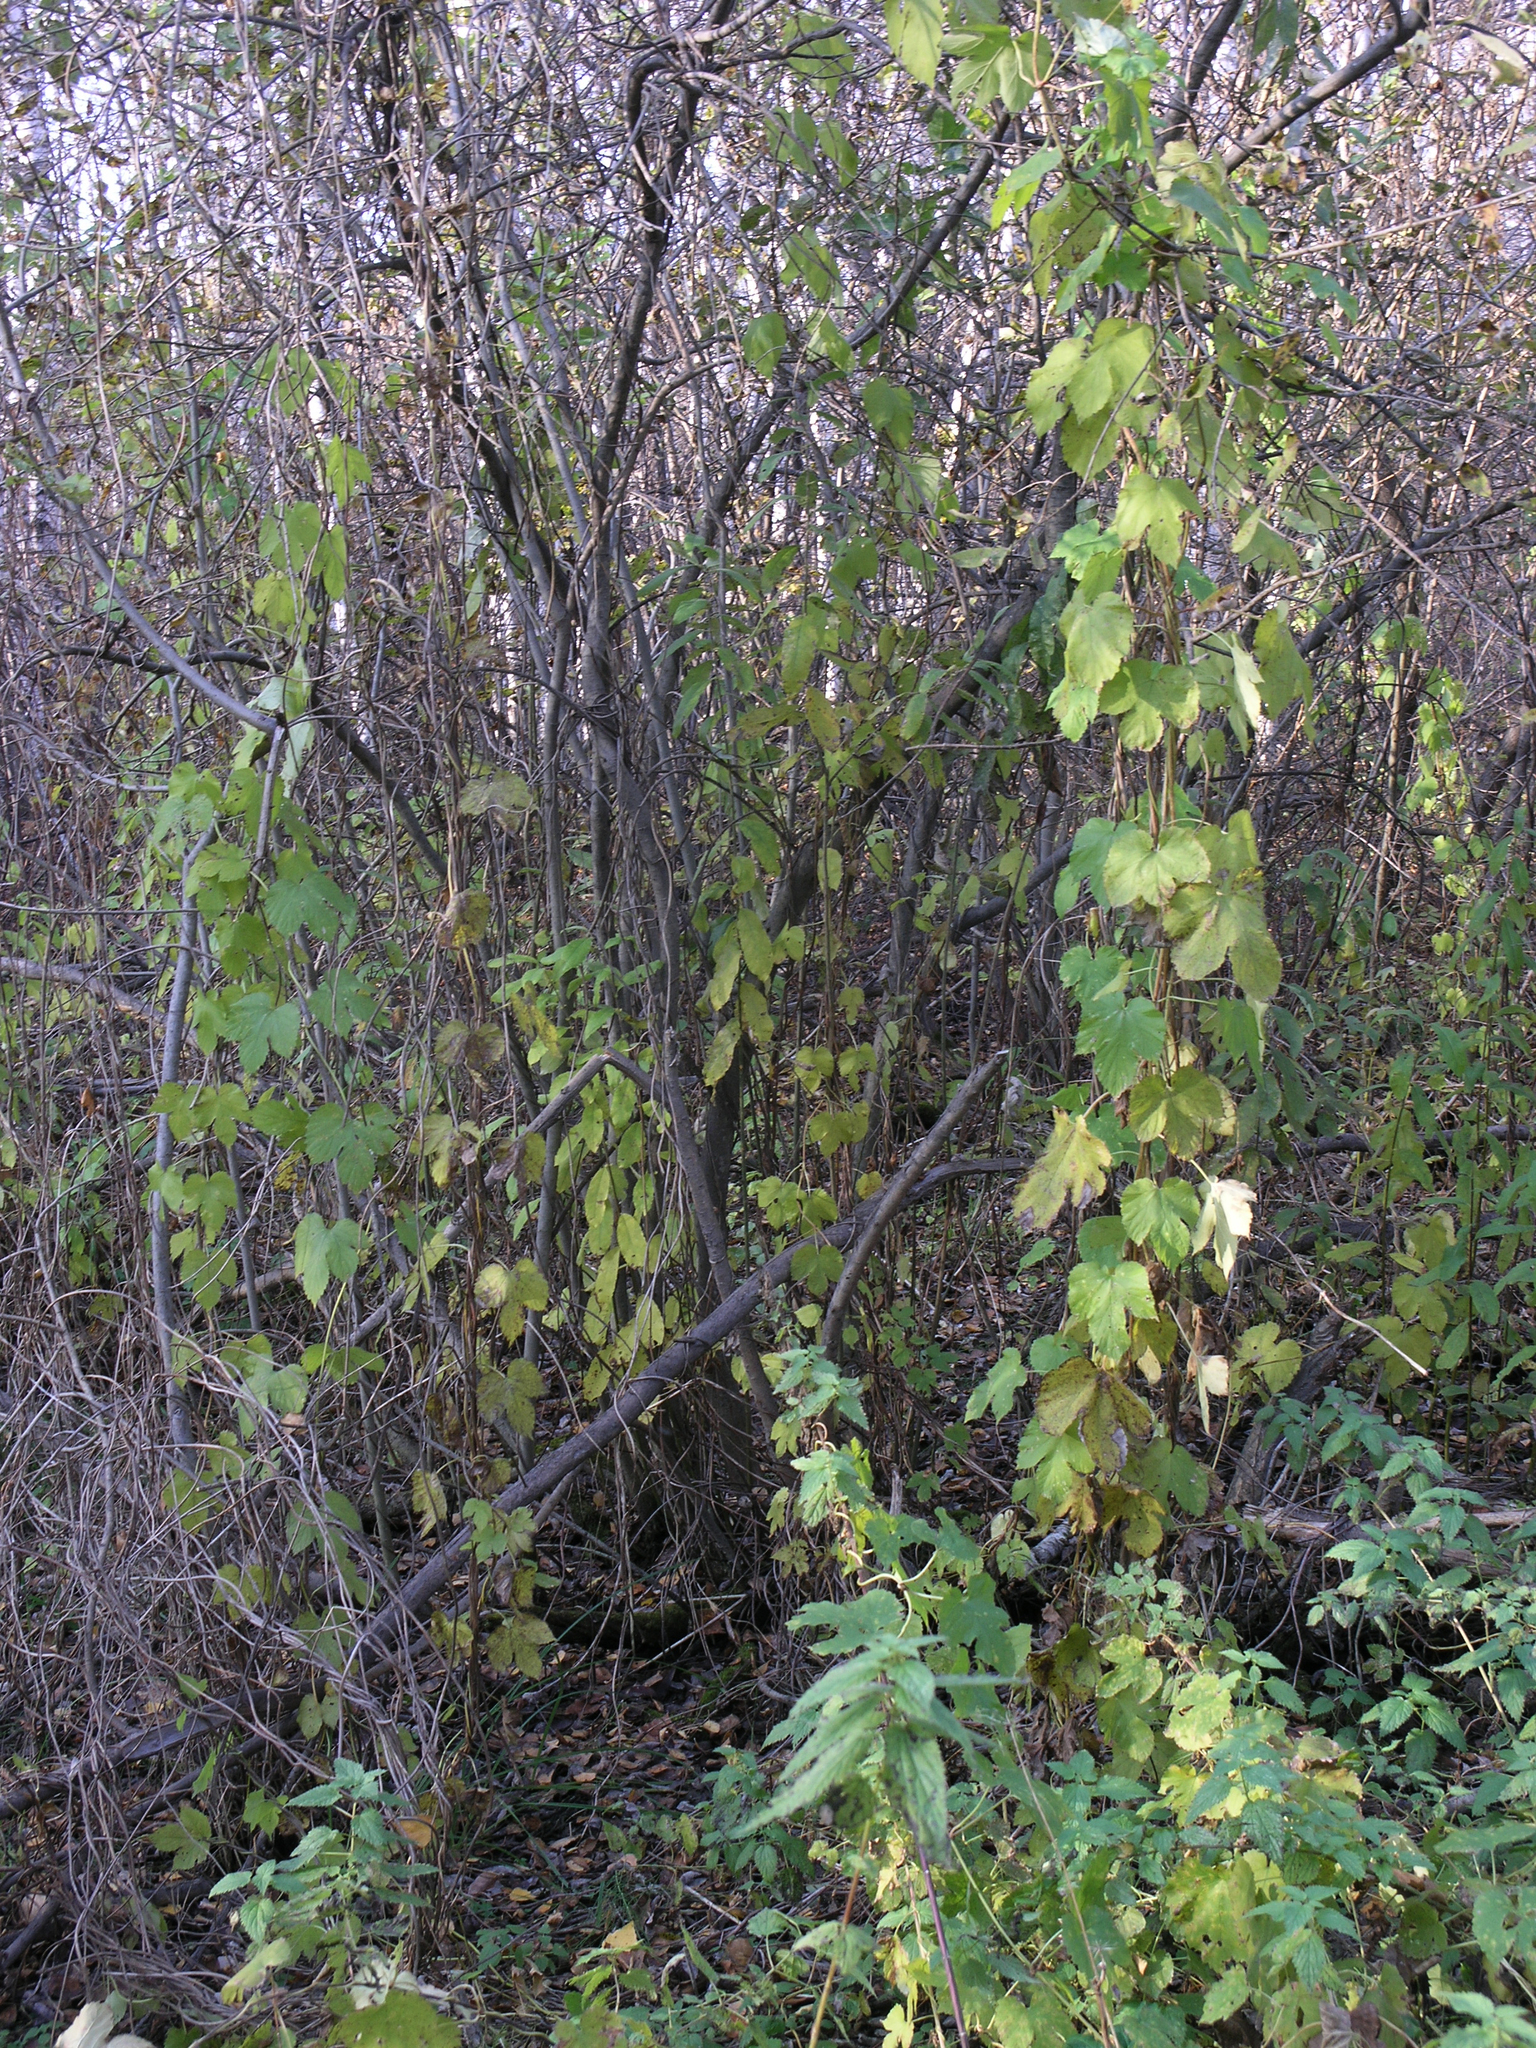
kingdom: Plantae
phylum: Tracheophyta
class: Magnoliopsida
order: Rosales
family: Cannabaceae
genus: Humulus
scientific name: Humulus lupulus
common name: Hop
